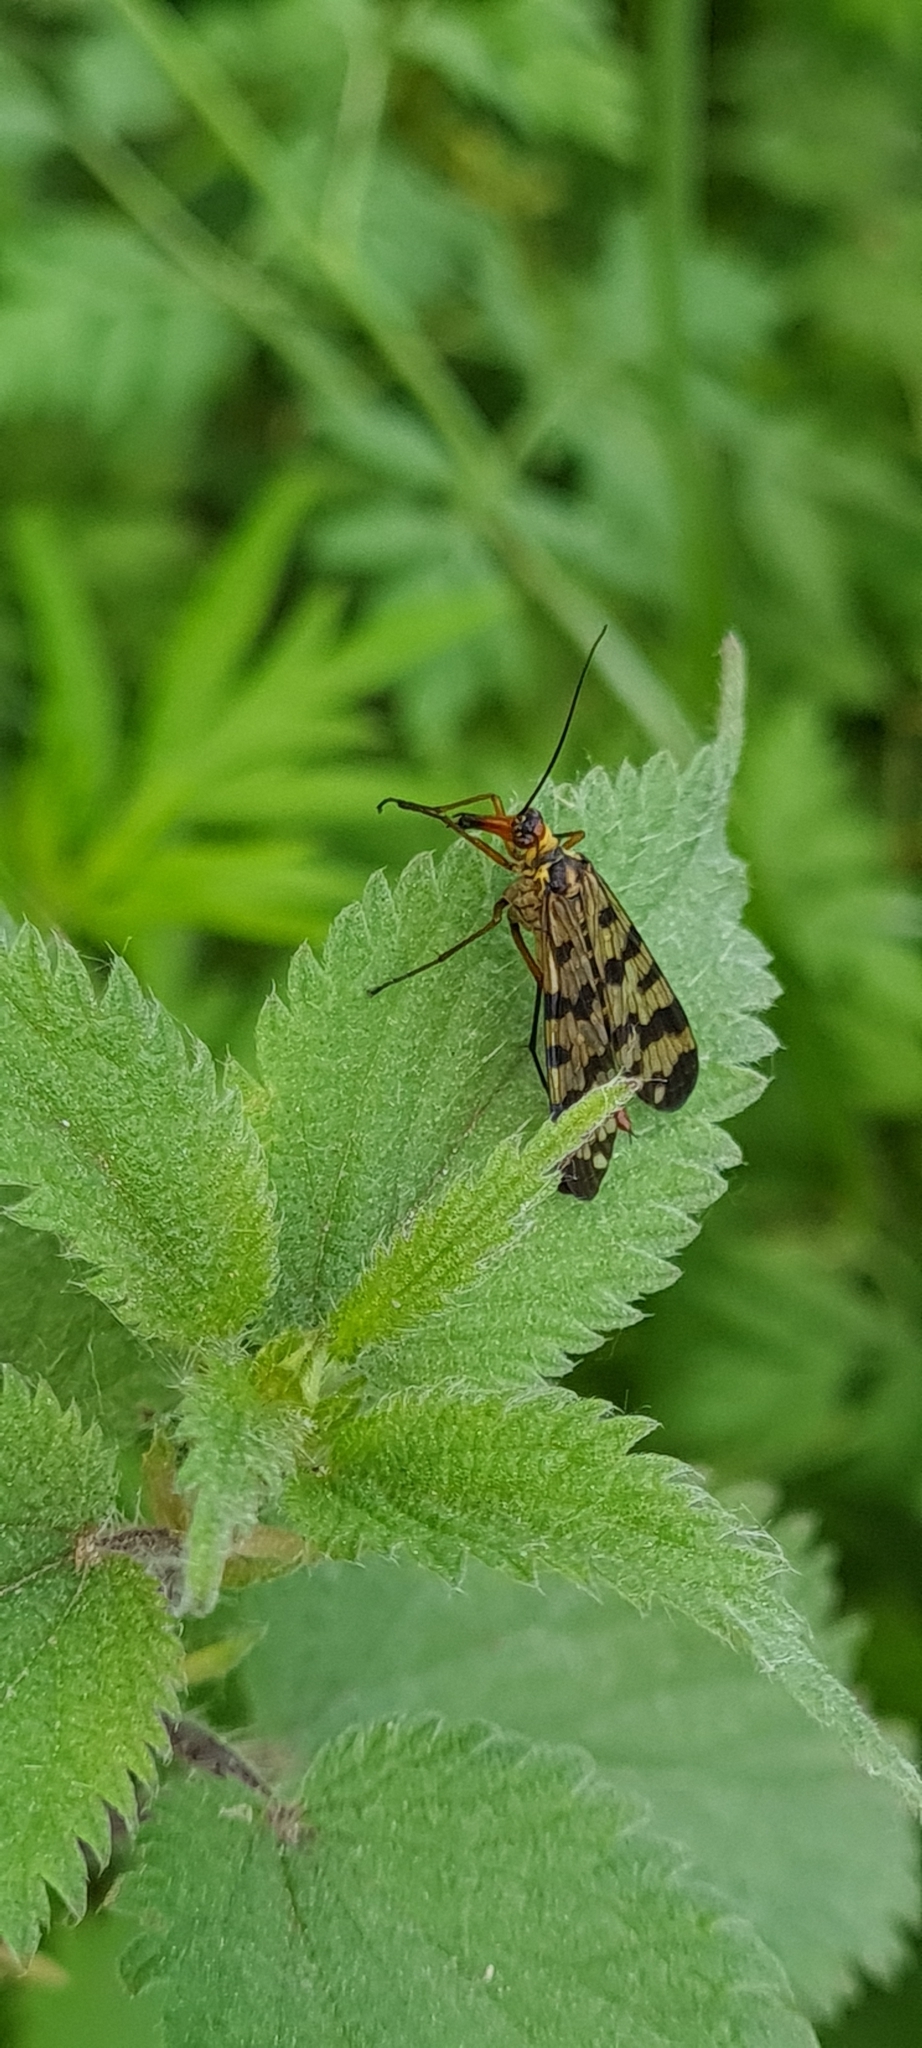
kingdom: Animalia
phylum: Arthropoda
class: Insecta
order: Mecoptera
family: Panorpidae
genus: Panorpa
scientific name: Panorpa meridionalis
